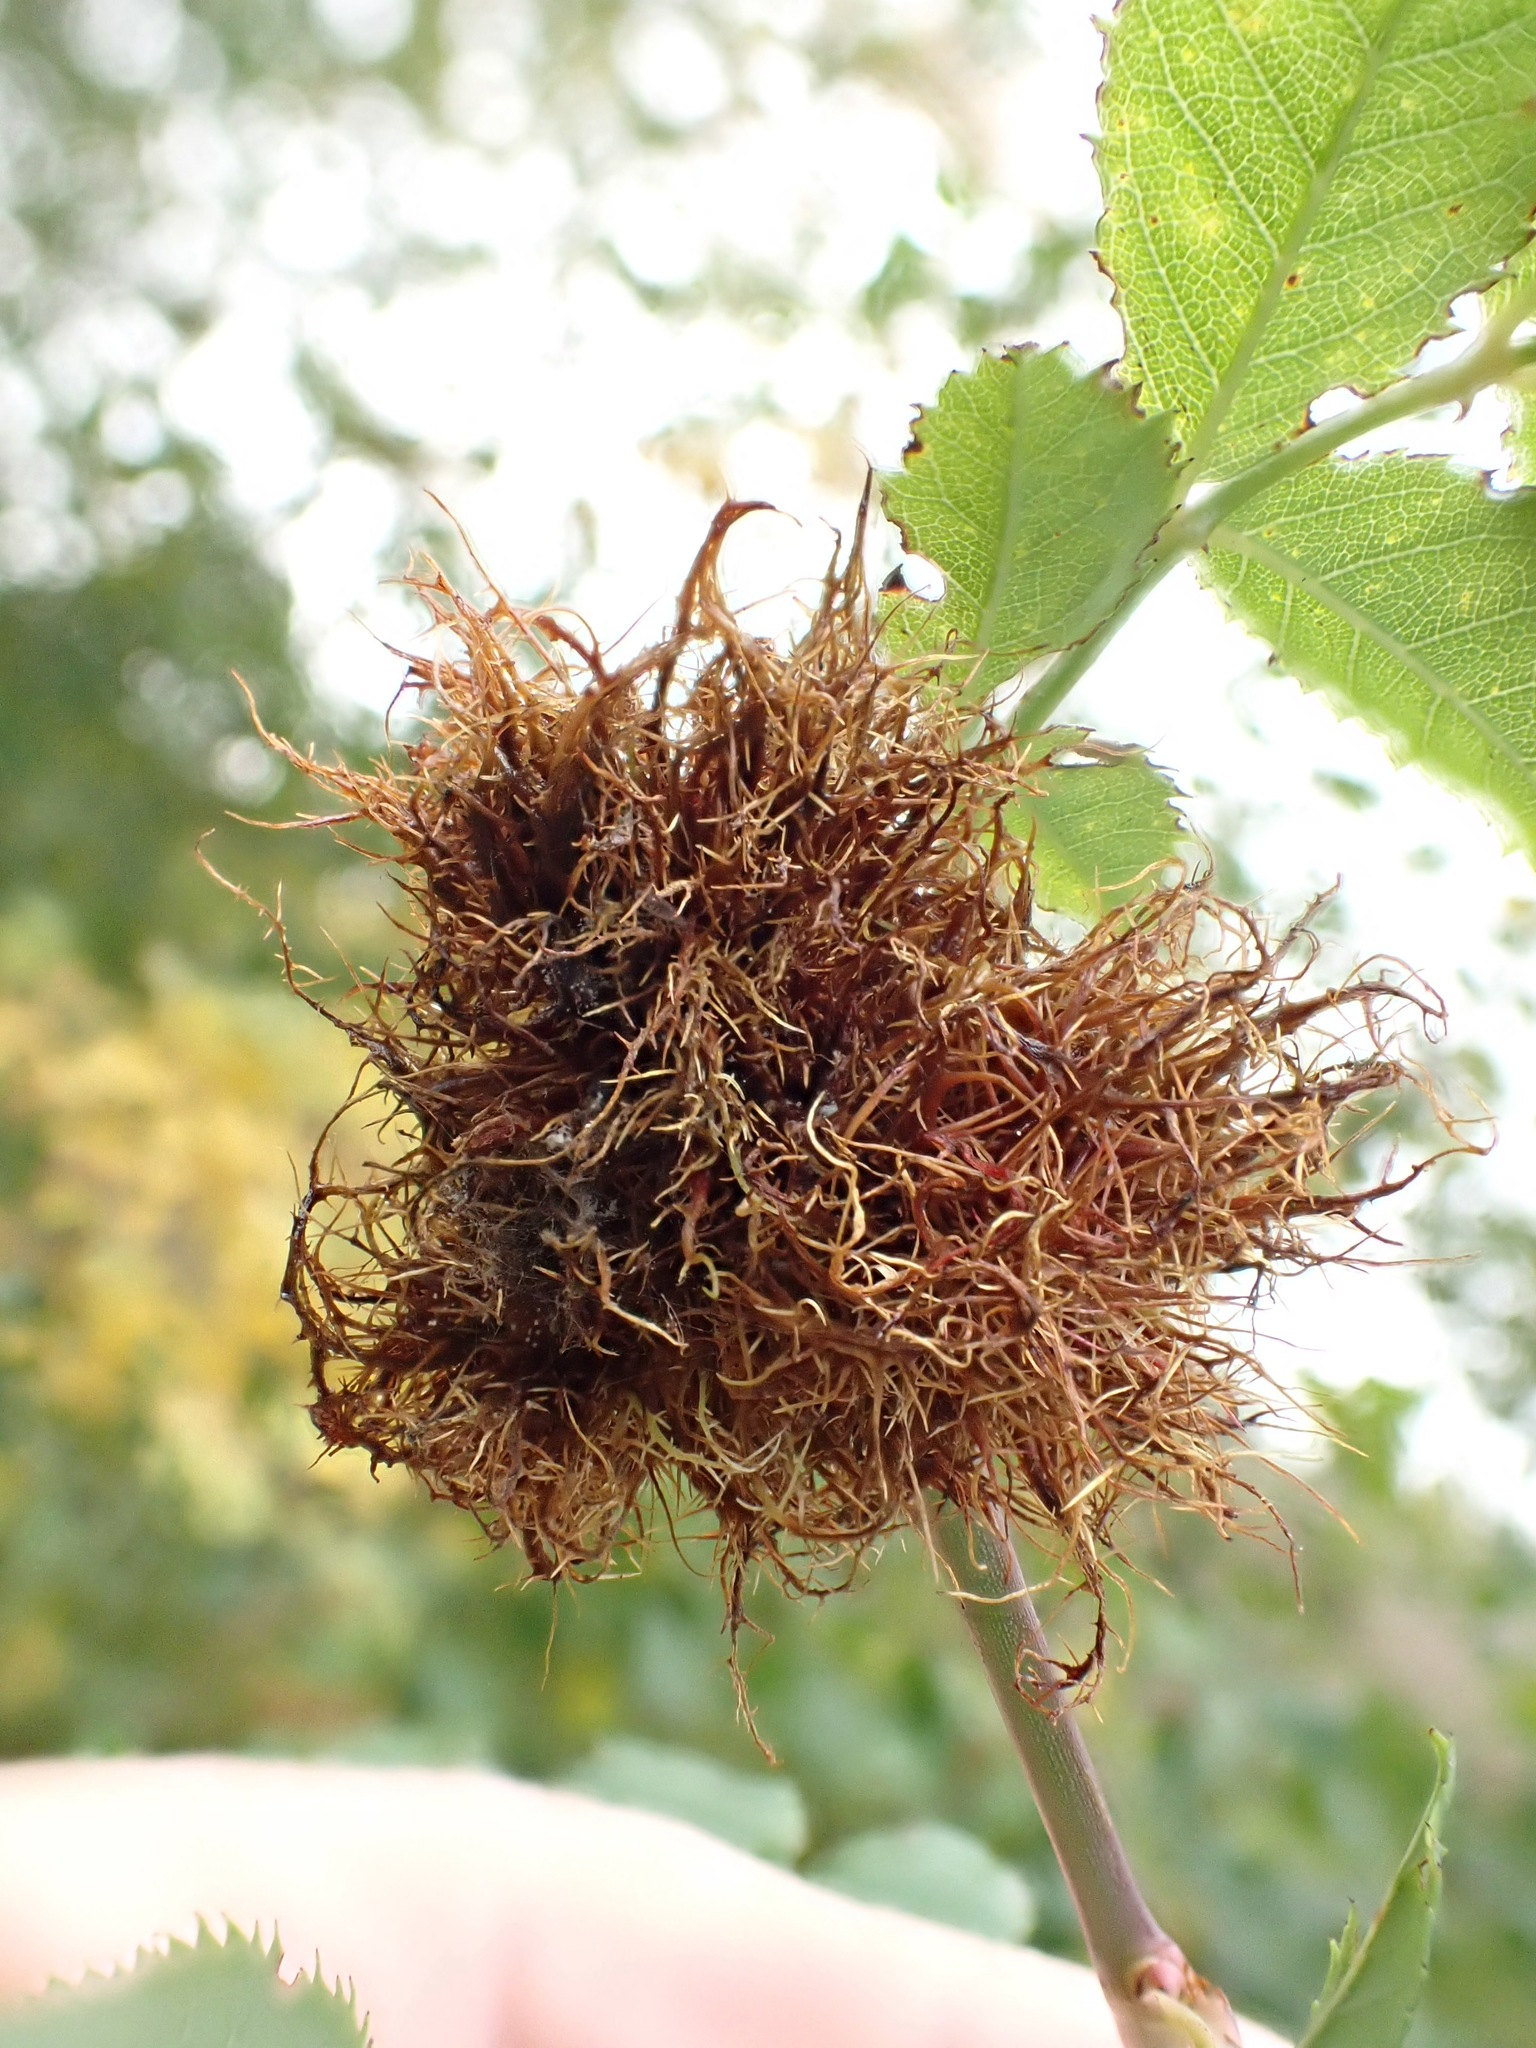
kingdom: Animalia
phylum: Arthropoda
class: Insecta
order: Hymenoptera
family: Cynipidae
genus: Diplolepis
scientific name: Diplolepis rosae
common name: Bedeguar gall
